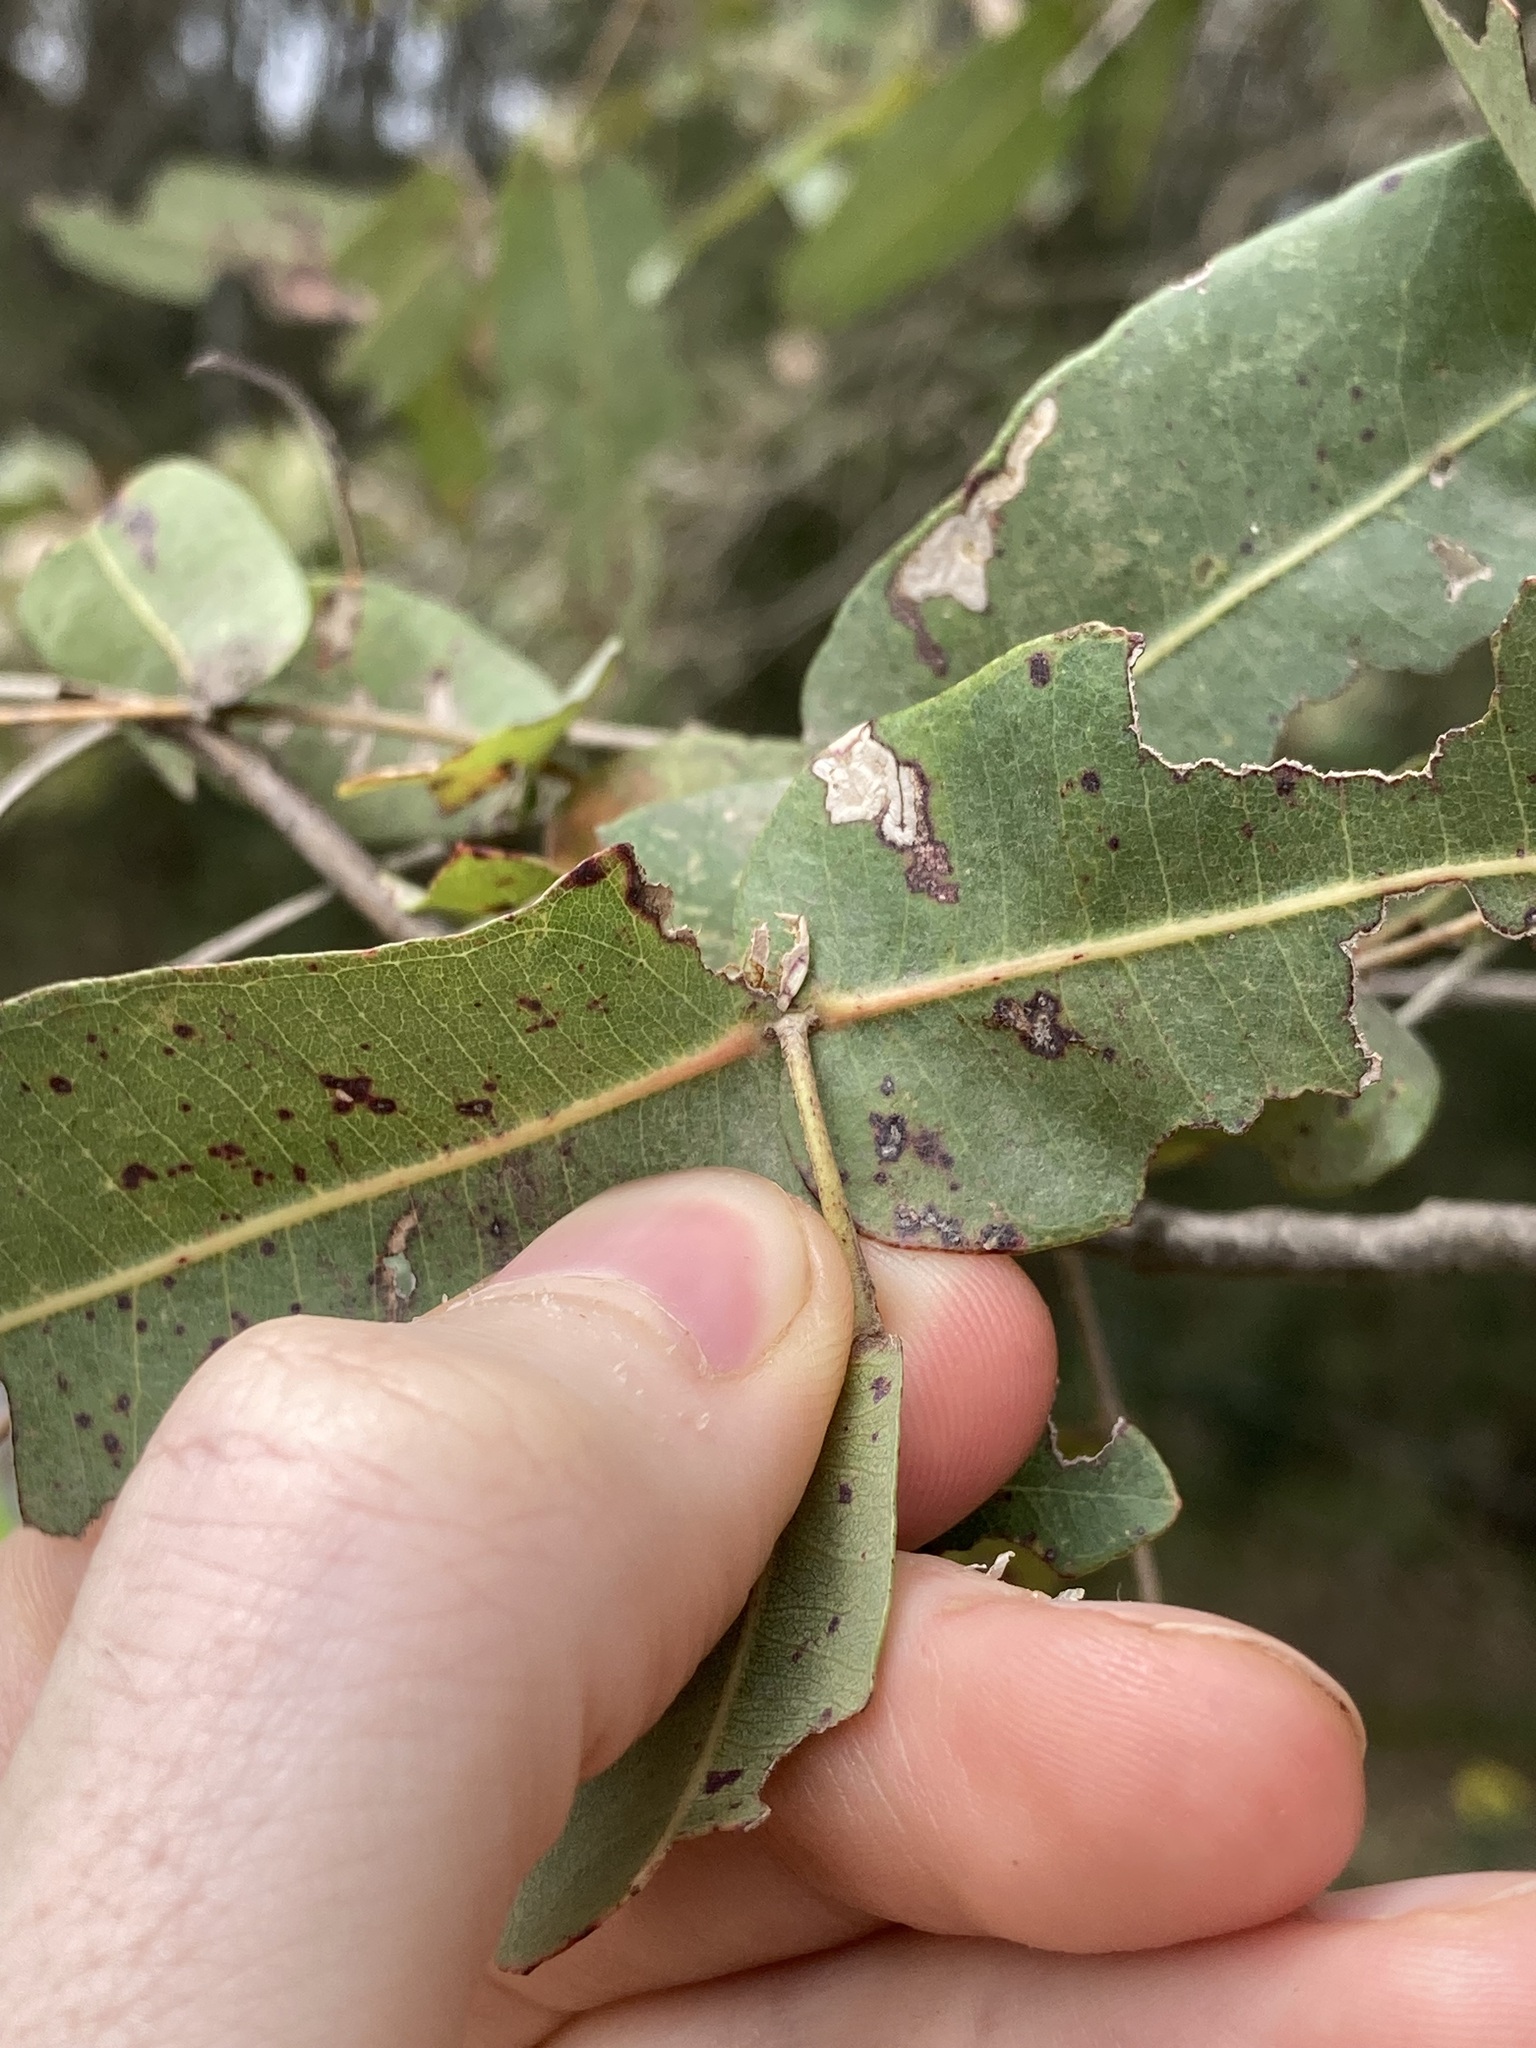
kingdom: Plantae
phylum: Tracheophyta
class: Magnoliopsida
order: Myrtales
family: Myrtaceae
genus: Angophora
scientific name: Angophora subvelutina
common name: Broad-leaved apple
